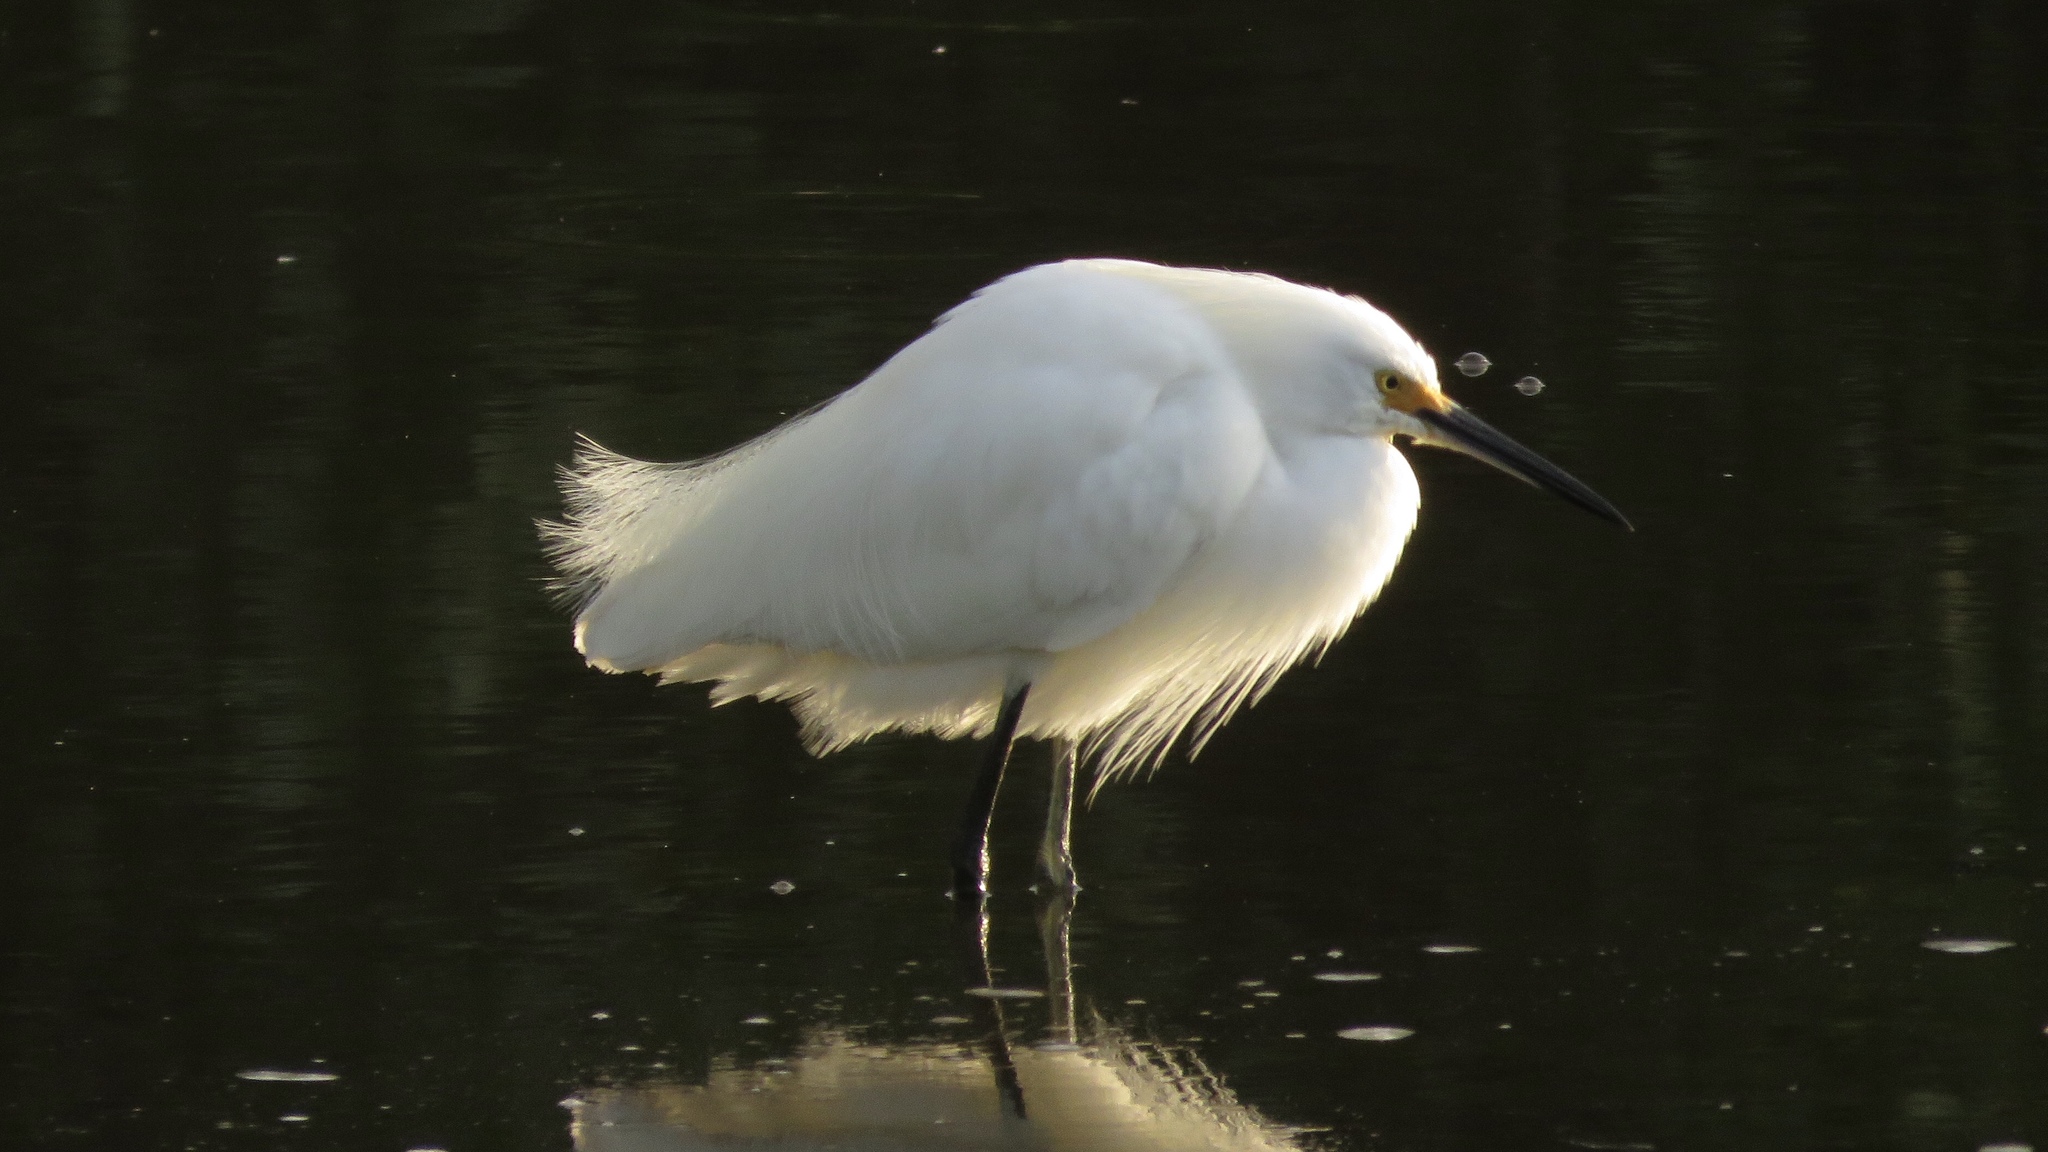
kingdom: Animalia
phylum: Chordata
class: Aves
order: Pelecaniformes
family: Ardeidae
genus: Egretta
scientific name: Egretta thula
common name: Snowy egret
